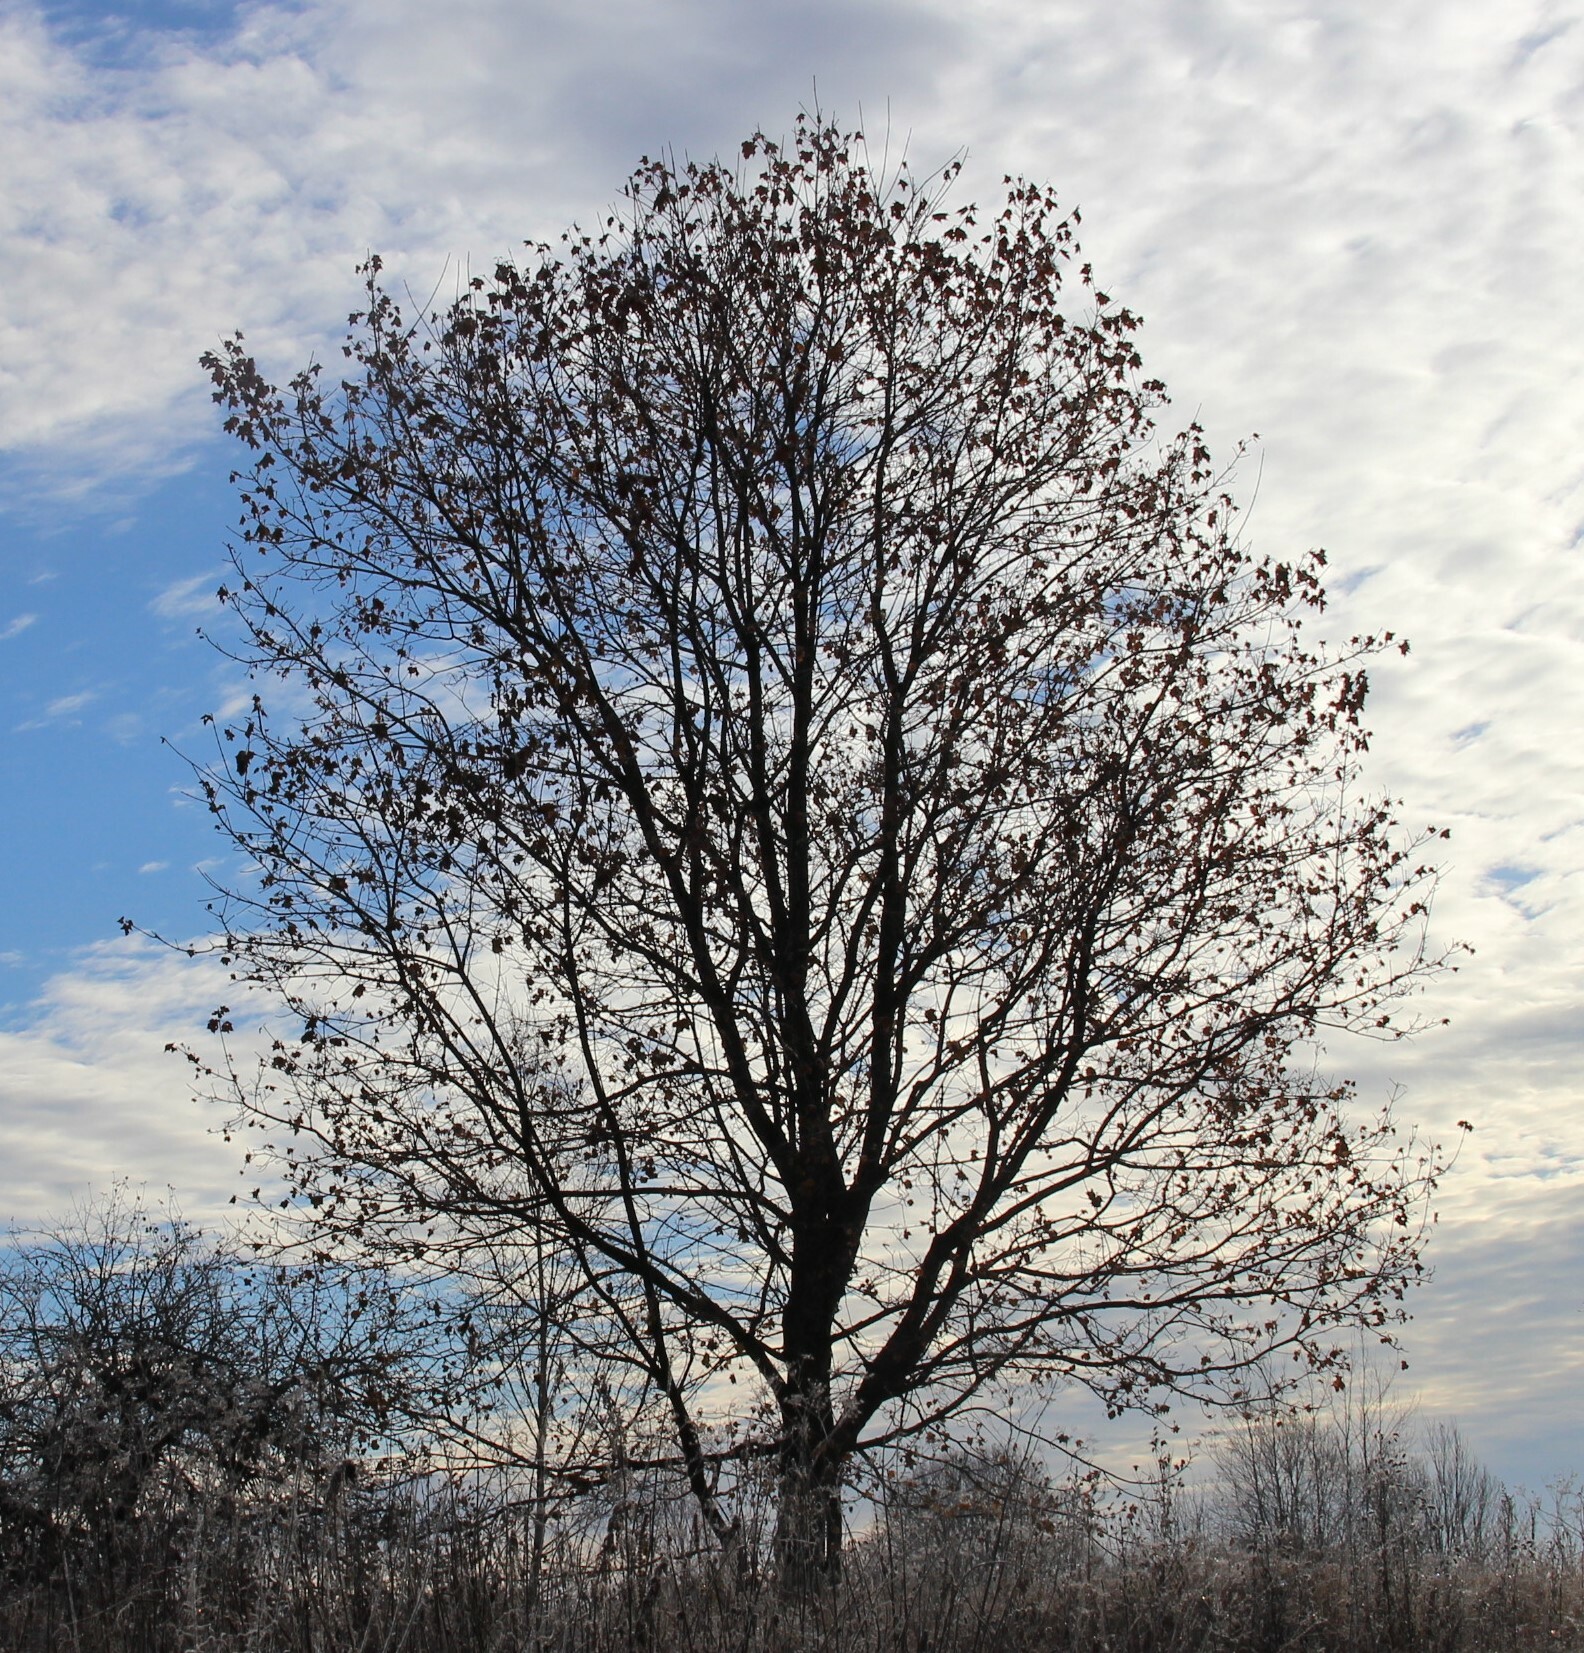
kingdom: Plantae
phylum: Tracheophyta
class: Magnoliopsida
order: Sapindales
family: Sapindaceae
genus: Acer
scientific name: Acer platanoides
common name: Norway maple
